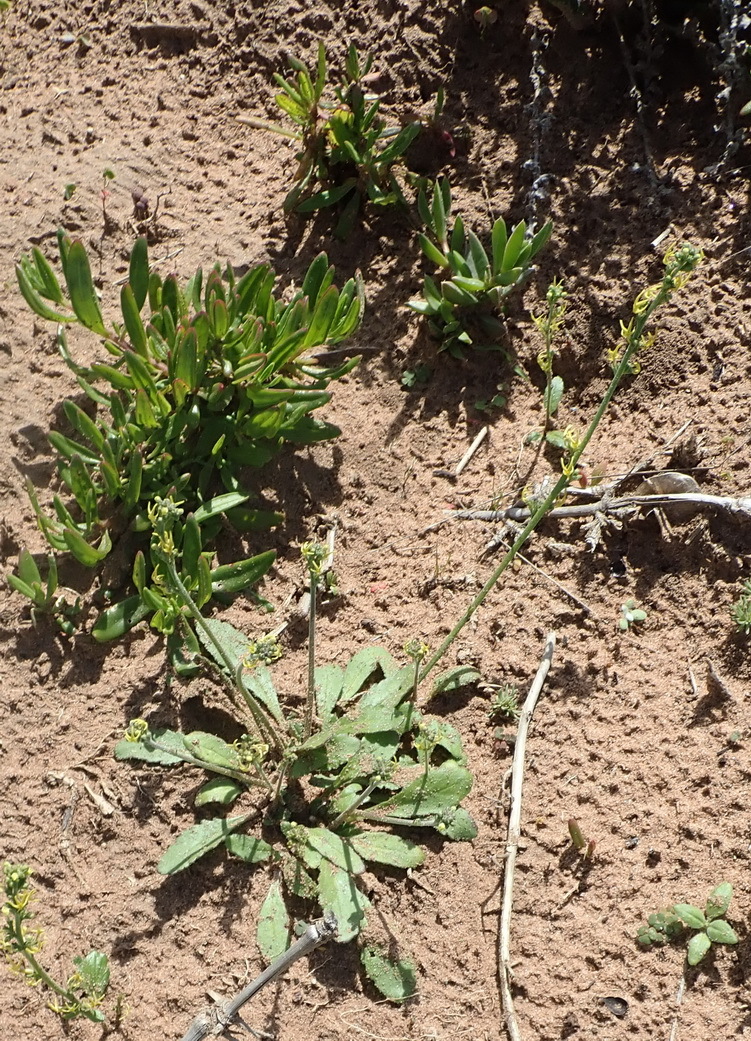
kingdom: Plantae
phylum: Tracheophyta
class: Magnoliopsida
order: Lamiales
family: Scrophulariaceae
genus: Manulea
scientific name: Manulea cheiranthus
